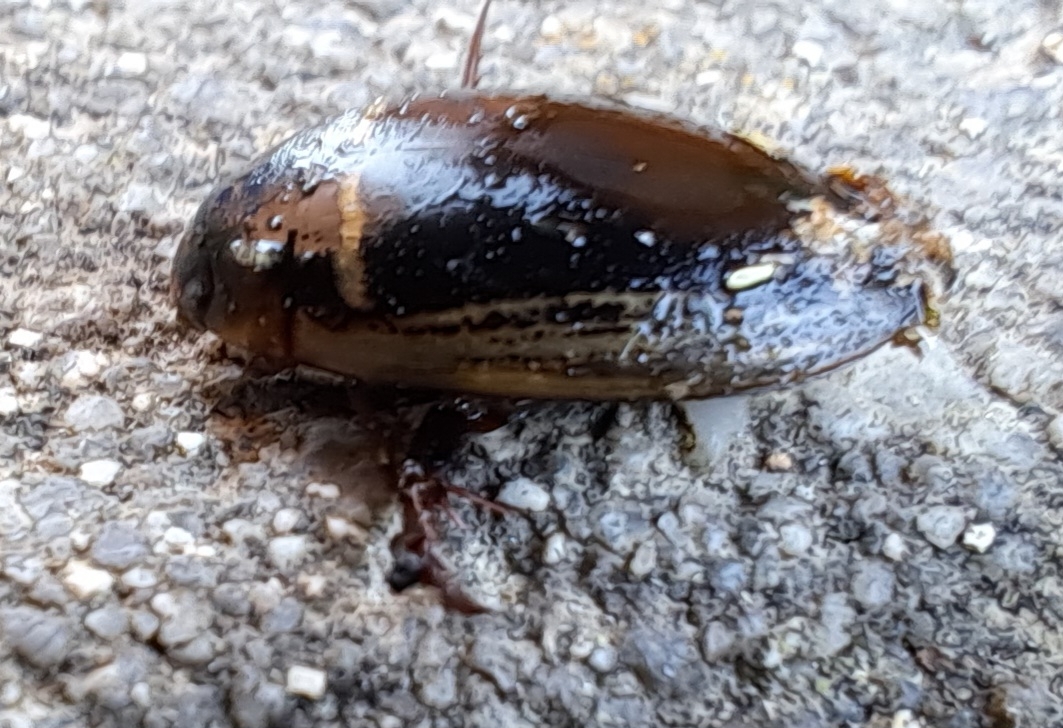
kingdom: Animalia
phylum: Arthropoda
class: Insecta
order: Coleoptera
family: Dytiscidae
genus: Hydaticus
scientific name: Hydaticus transversalis
